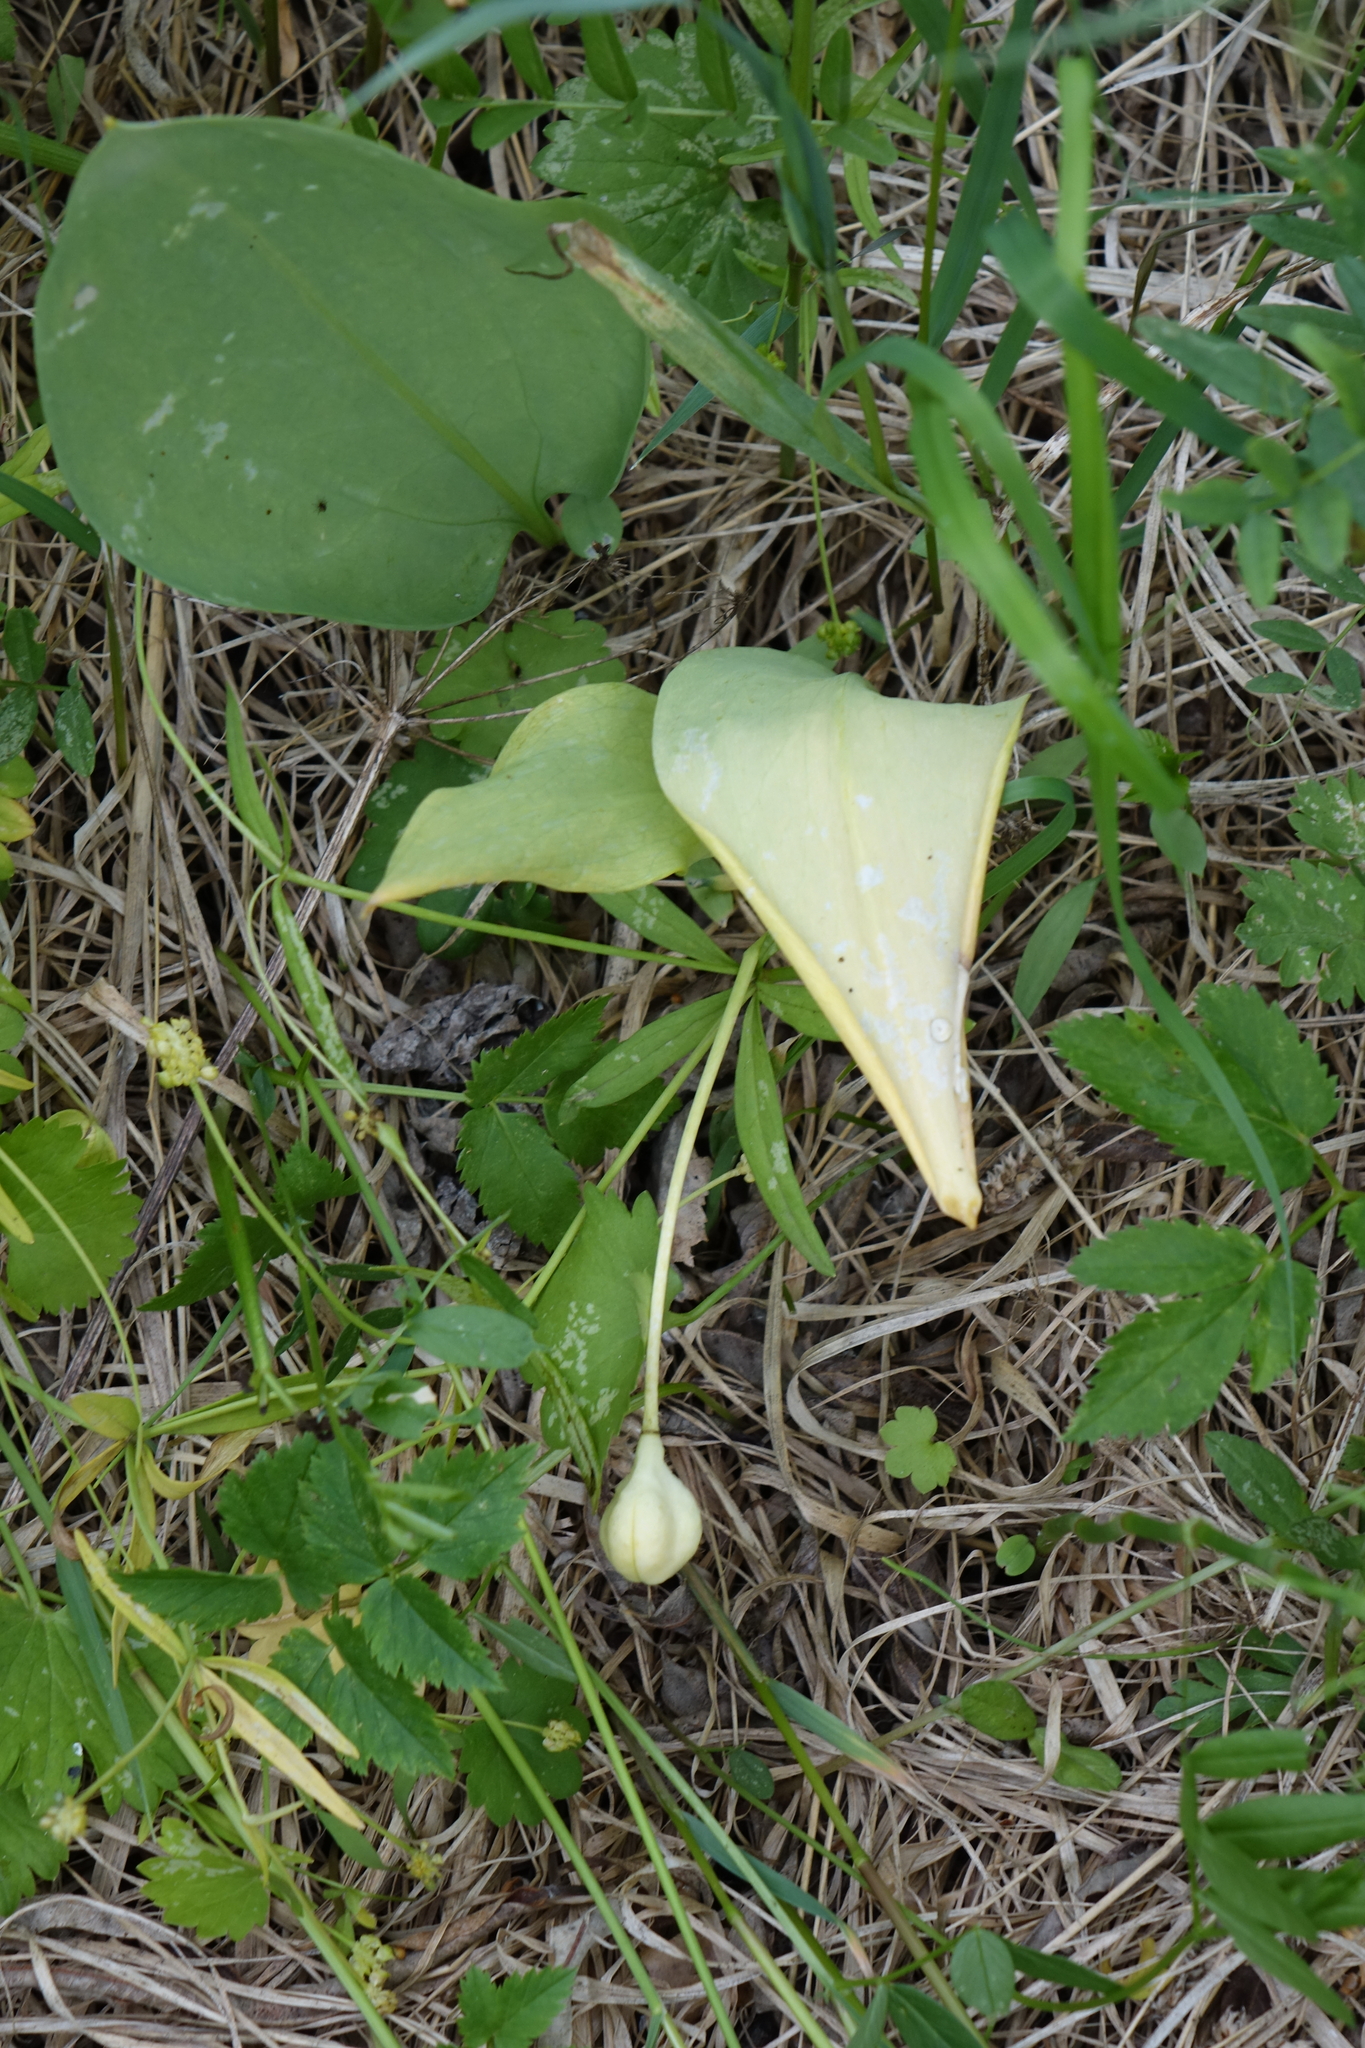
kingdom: Plantae
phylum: Tracheophyta
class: Liliopsida
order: Liliales
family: Liliaceae
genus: Erythronium
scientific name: Erythronium sibiricum
